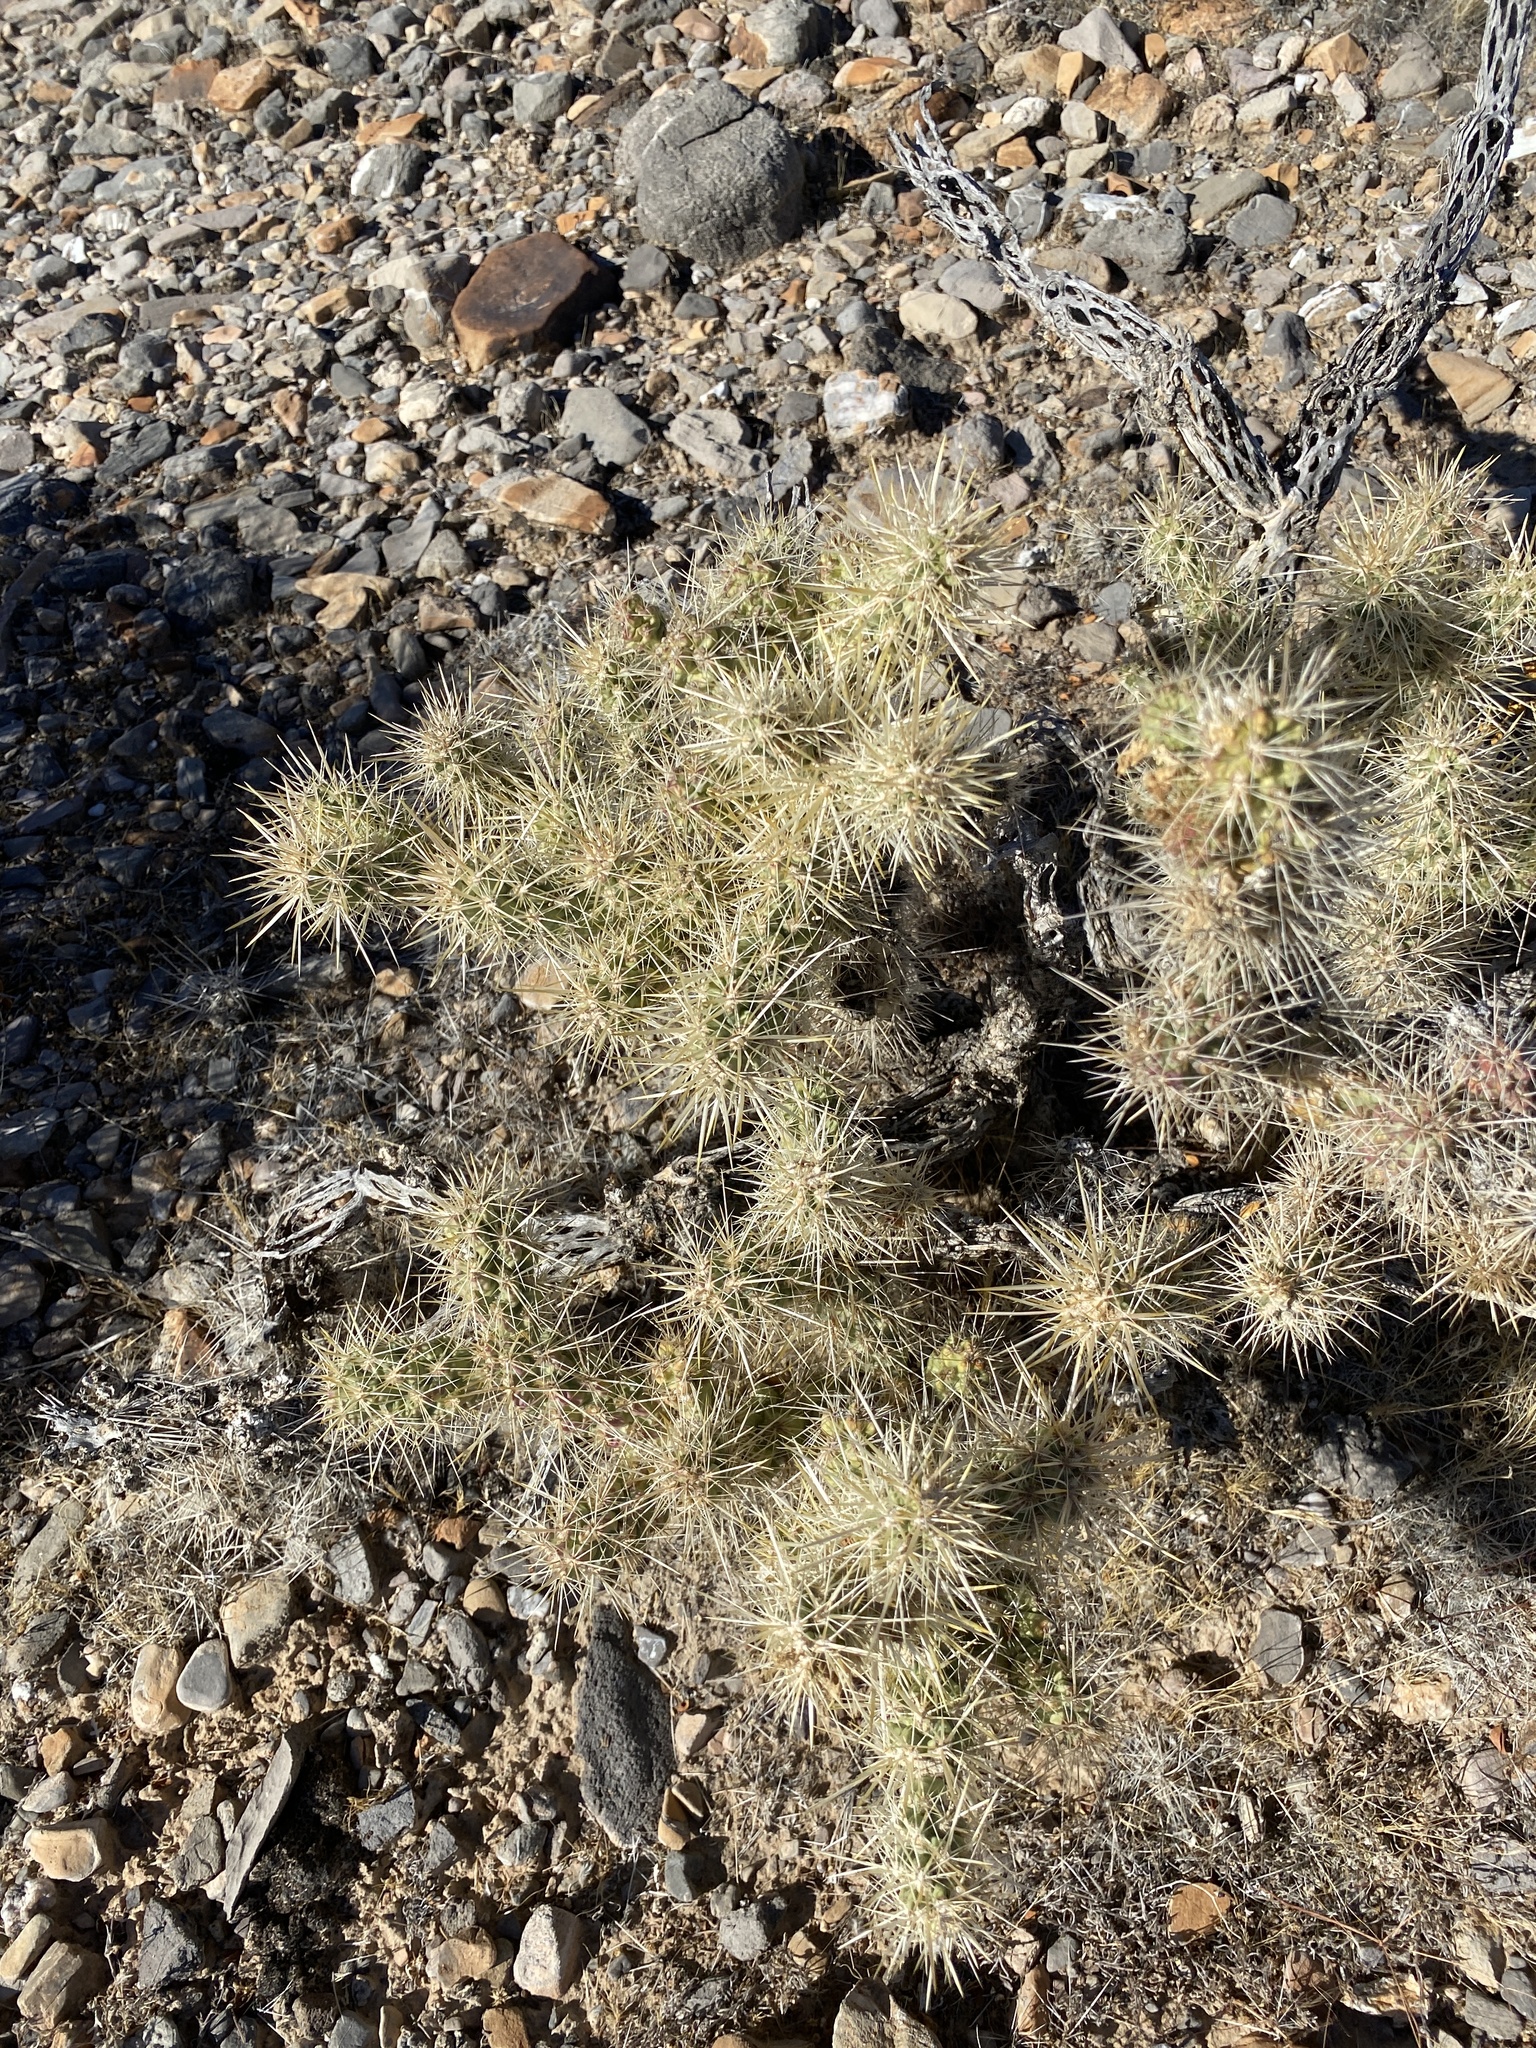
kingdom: Plantae
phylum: Tracheophyta
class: Magnoliopsida
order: Caryophyllales
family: Cactaceae
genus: Cylindropuntia
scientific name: Cylindropuntia echinocarpa
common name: Ground cholla
